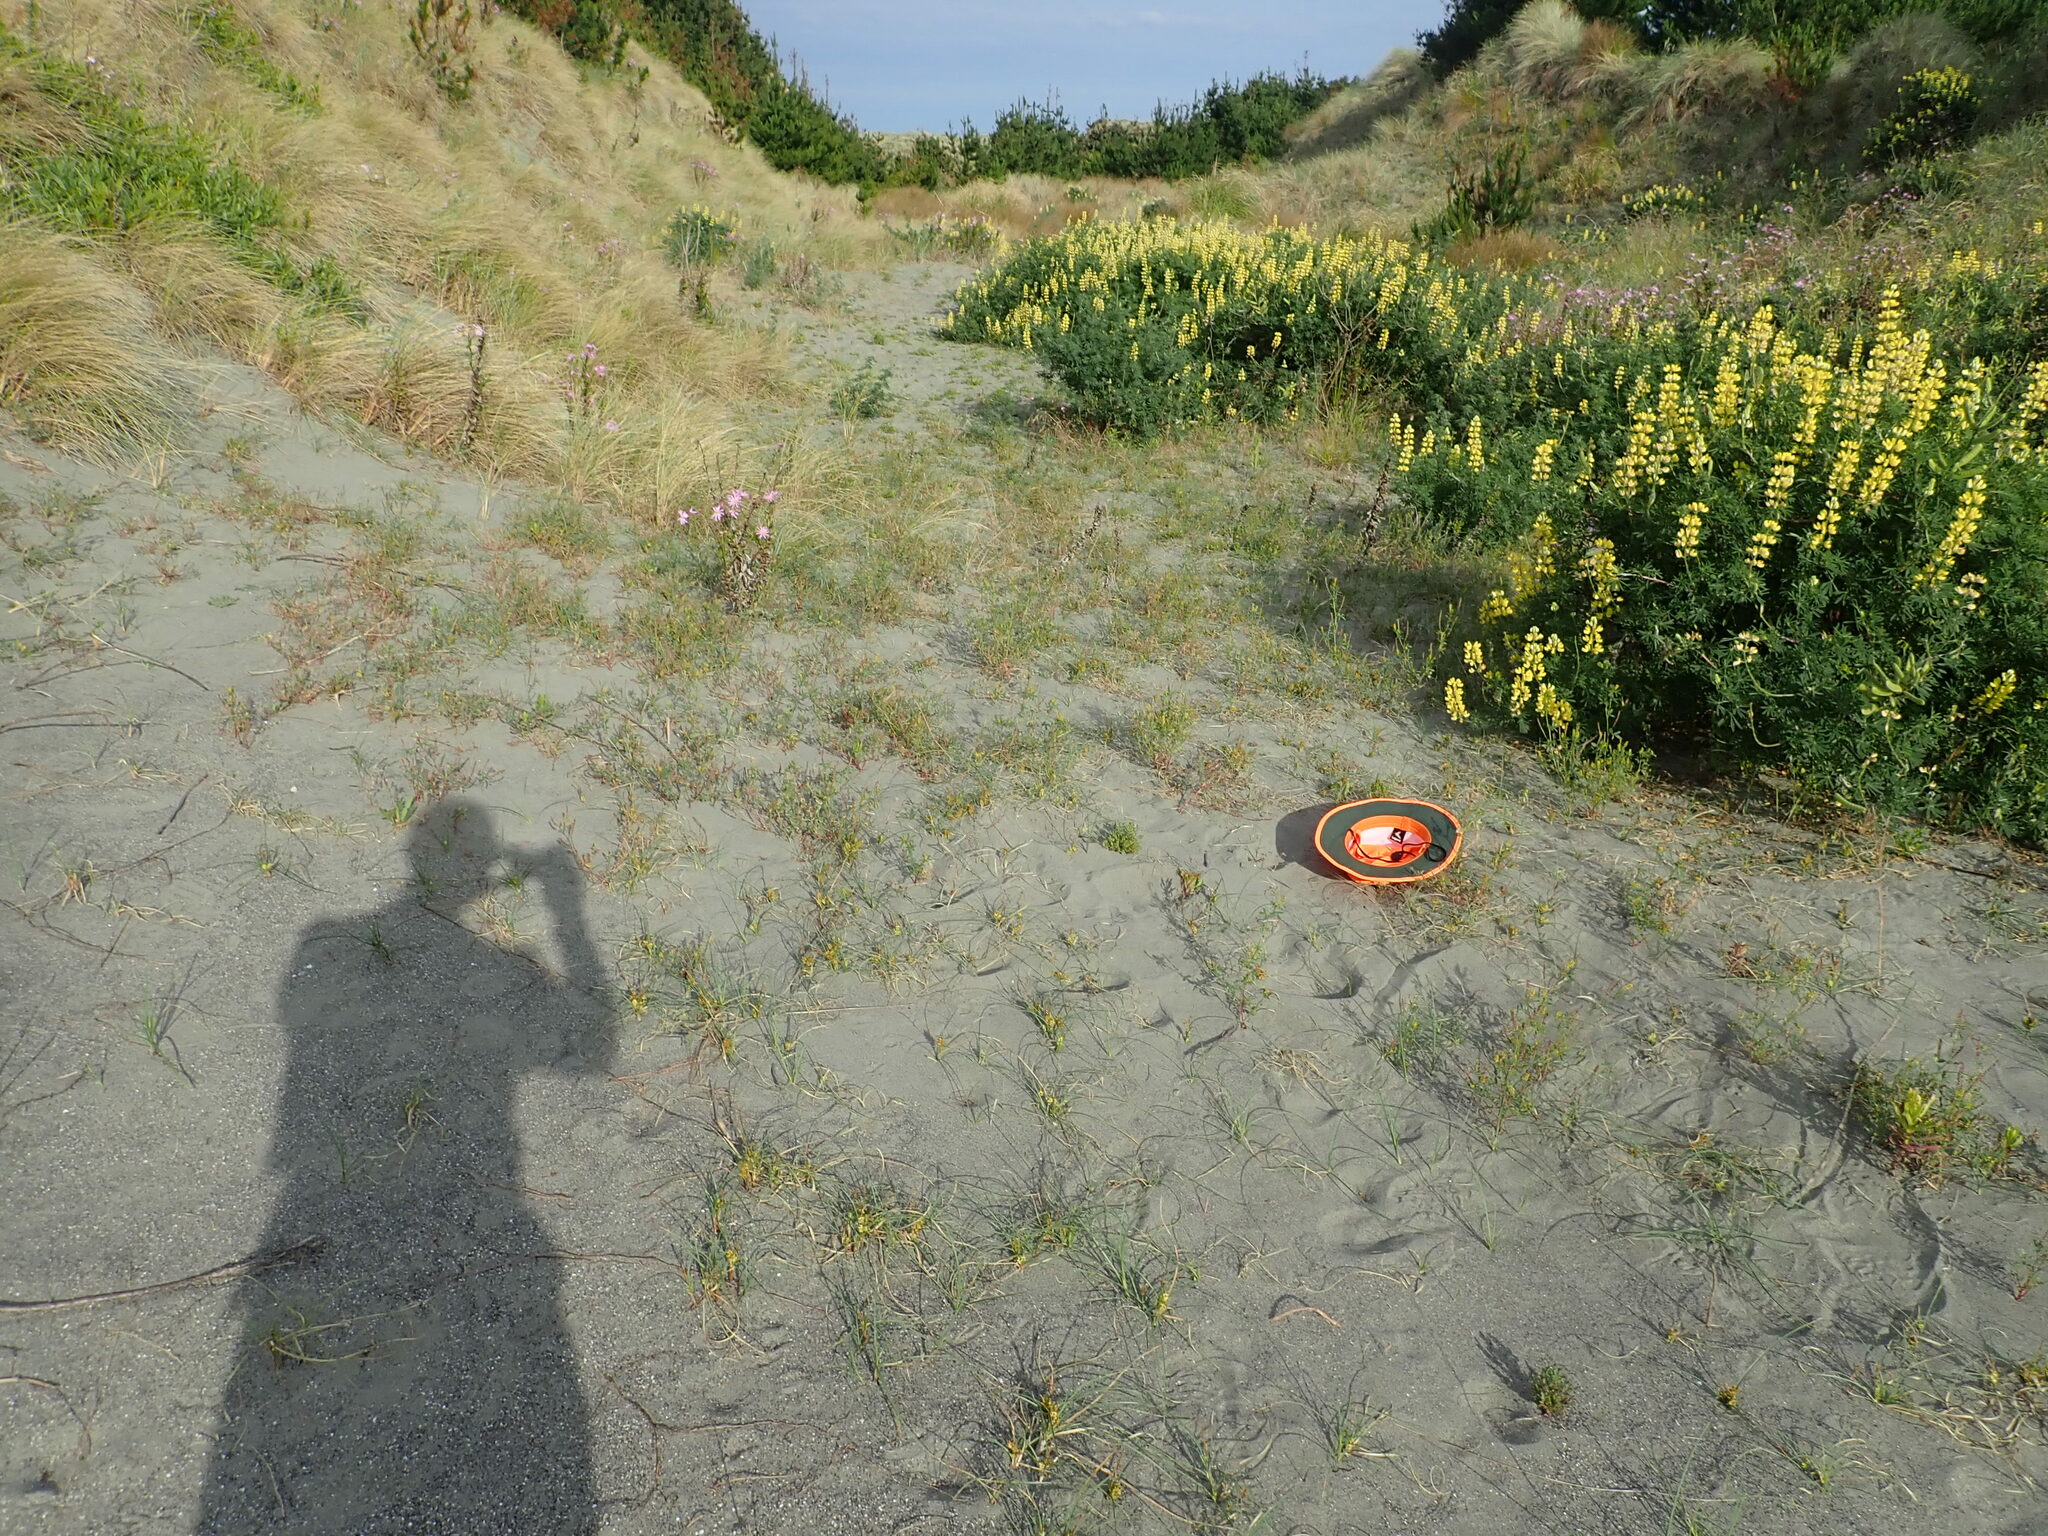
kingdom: Plantae
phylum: Tracheophyta
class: Liliopsida
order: Poales
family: Cyperaceae
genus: Carex
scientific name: Carex pumila
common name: Dwarf sedge
